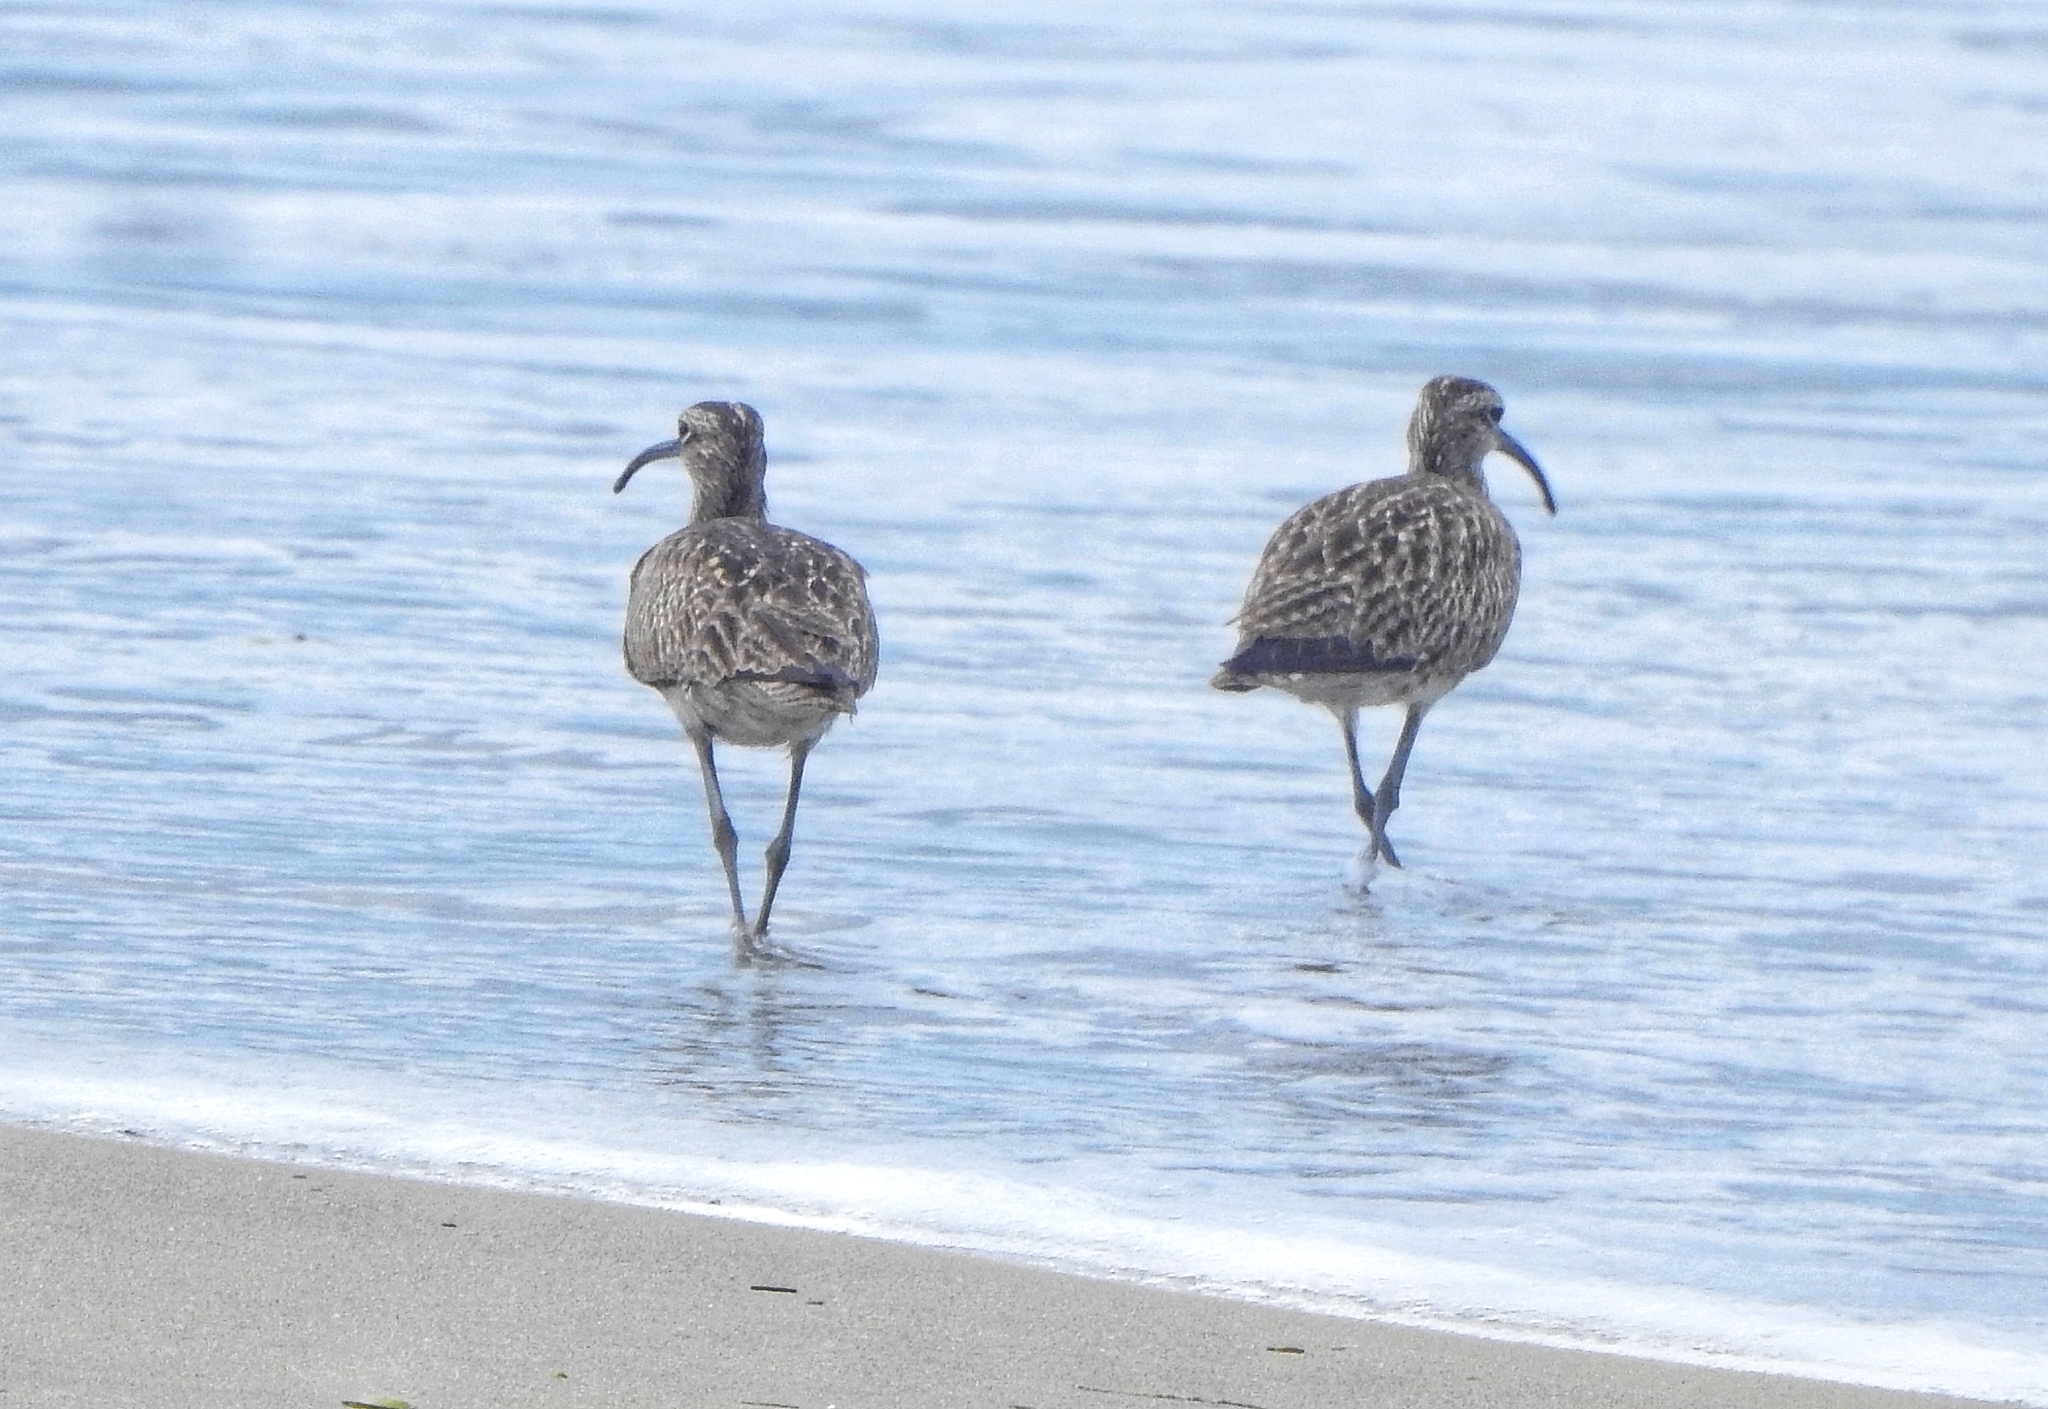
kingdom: Animalia
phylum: Chordata
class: Aves
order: Charadriiformes
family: Scolopacidae
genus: Numenius
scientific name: Numenius phaeopus
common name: Whimbrel
